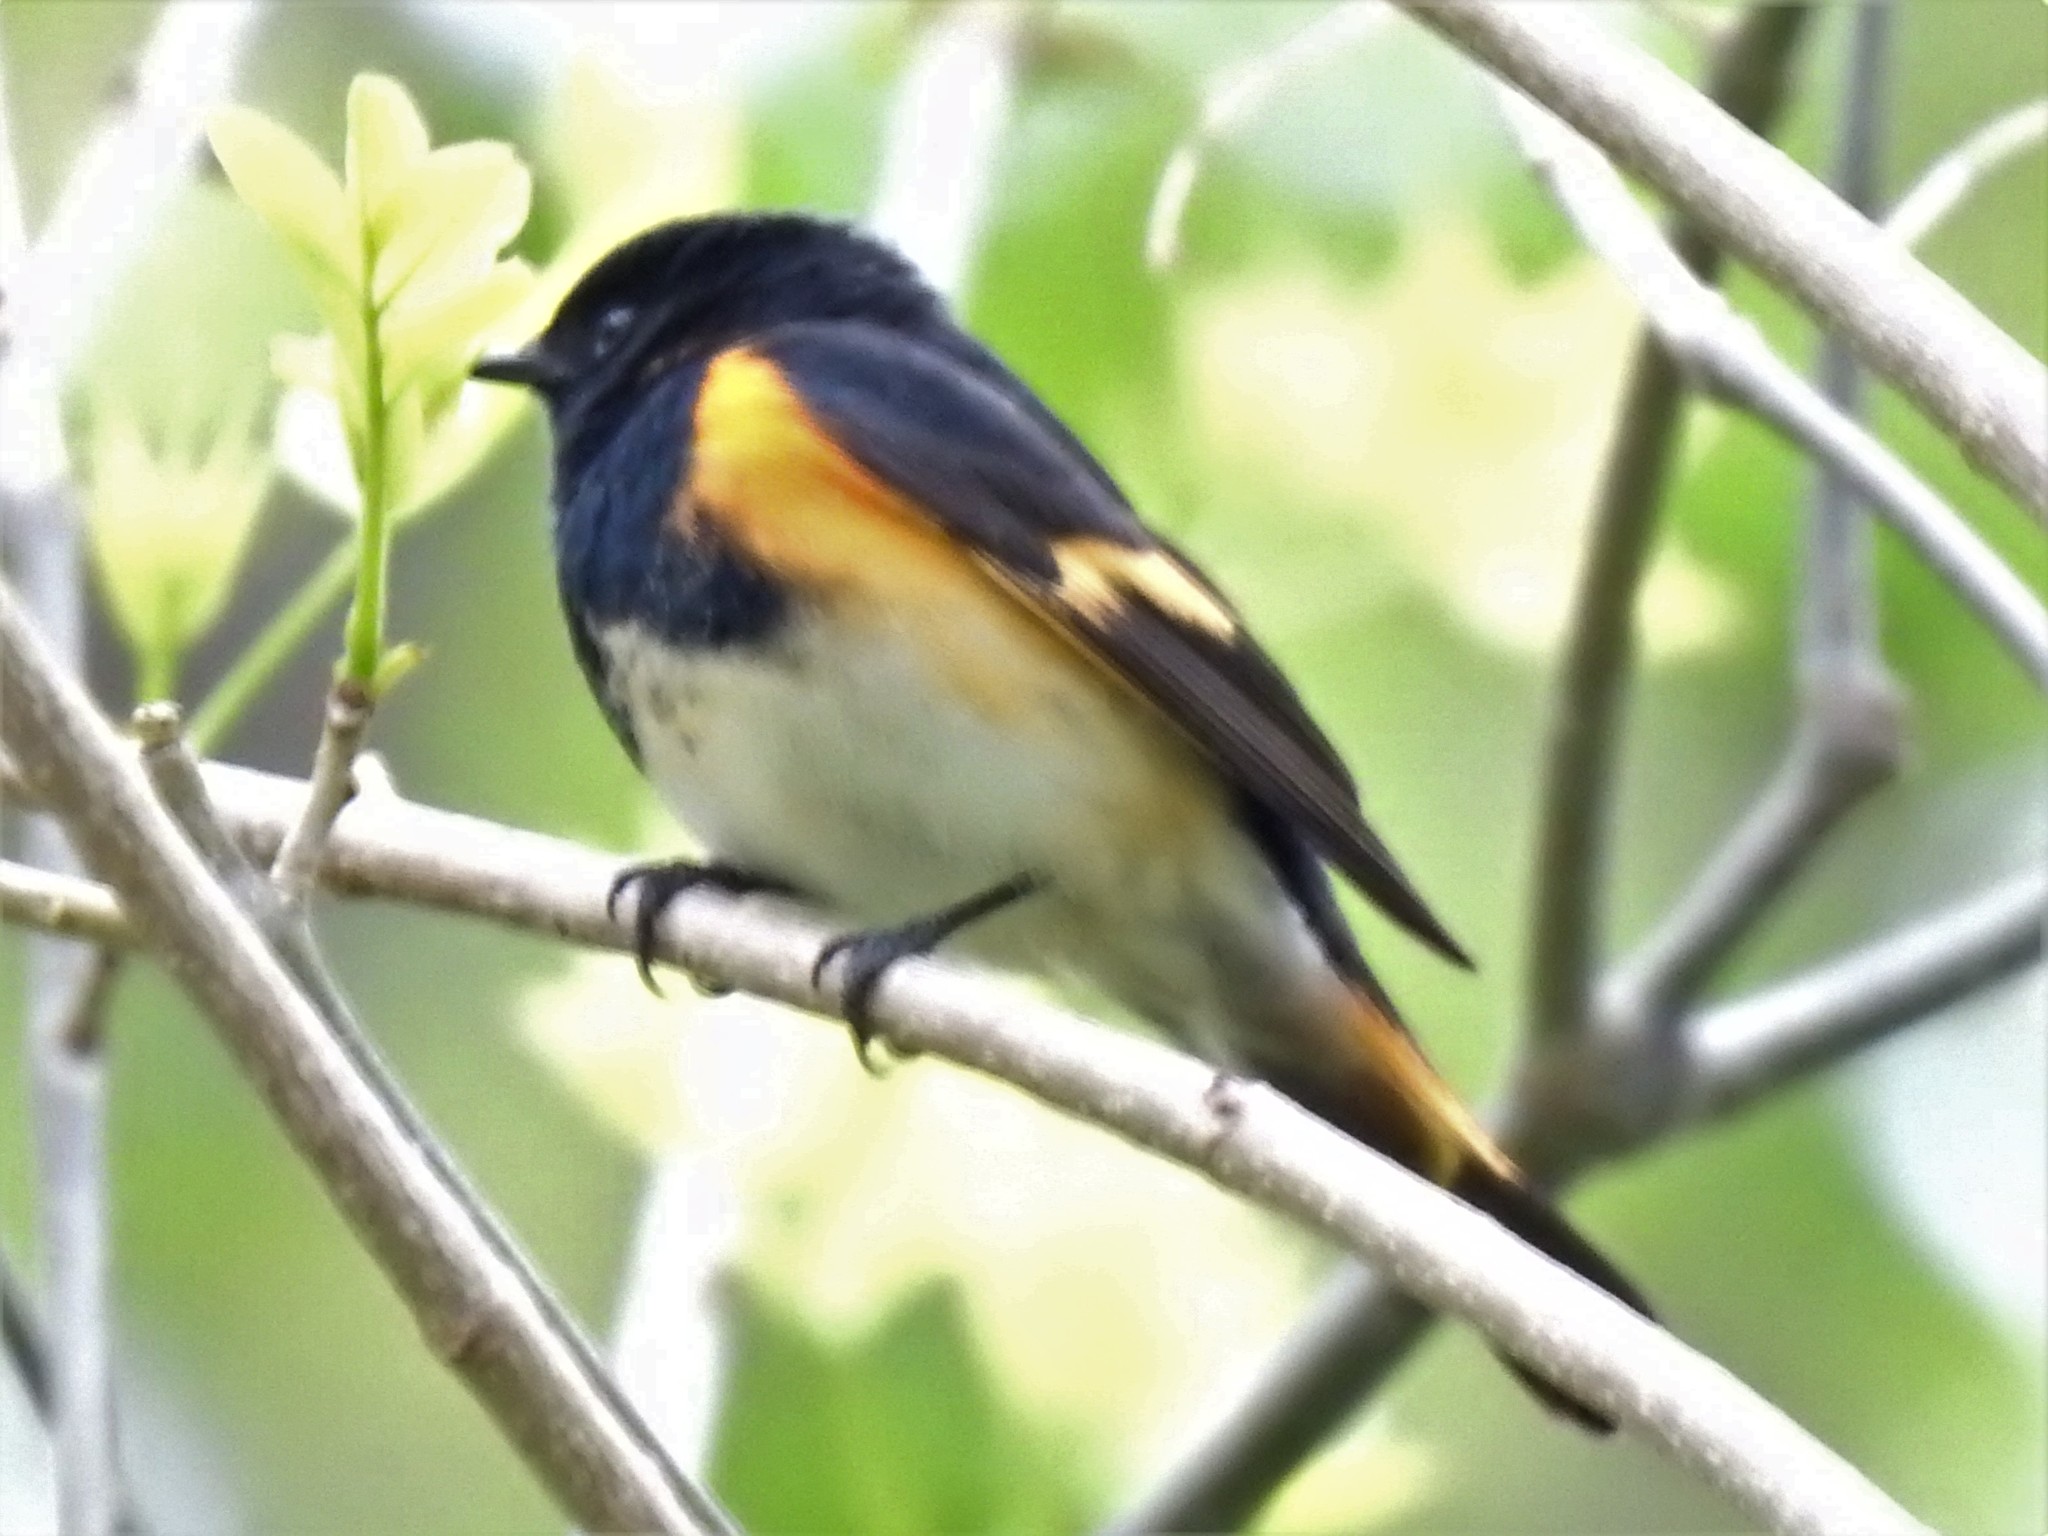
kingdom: Animalia
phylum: Chordata
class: Aves
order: Passeriformes
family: Parulidae
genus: Setophaga
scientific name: Setophaga ruticilla
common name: American redstart
